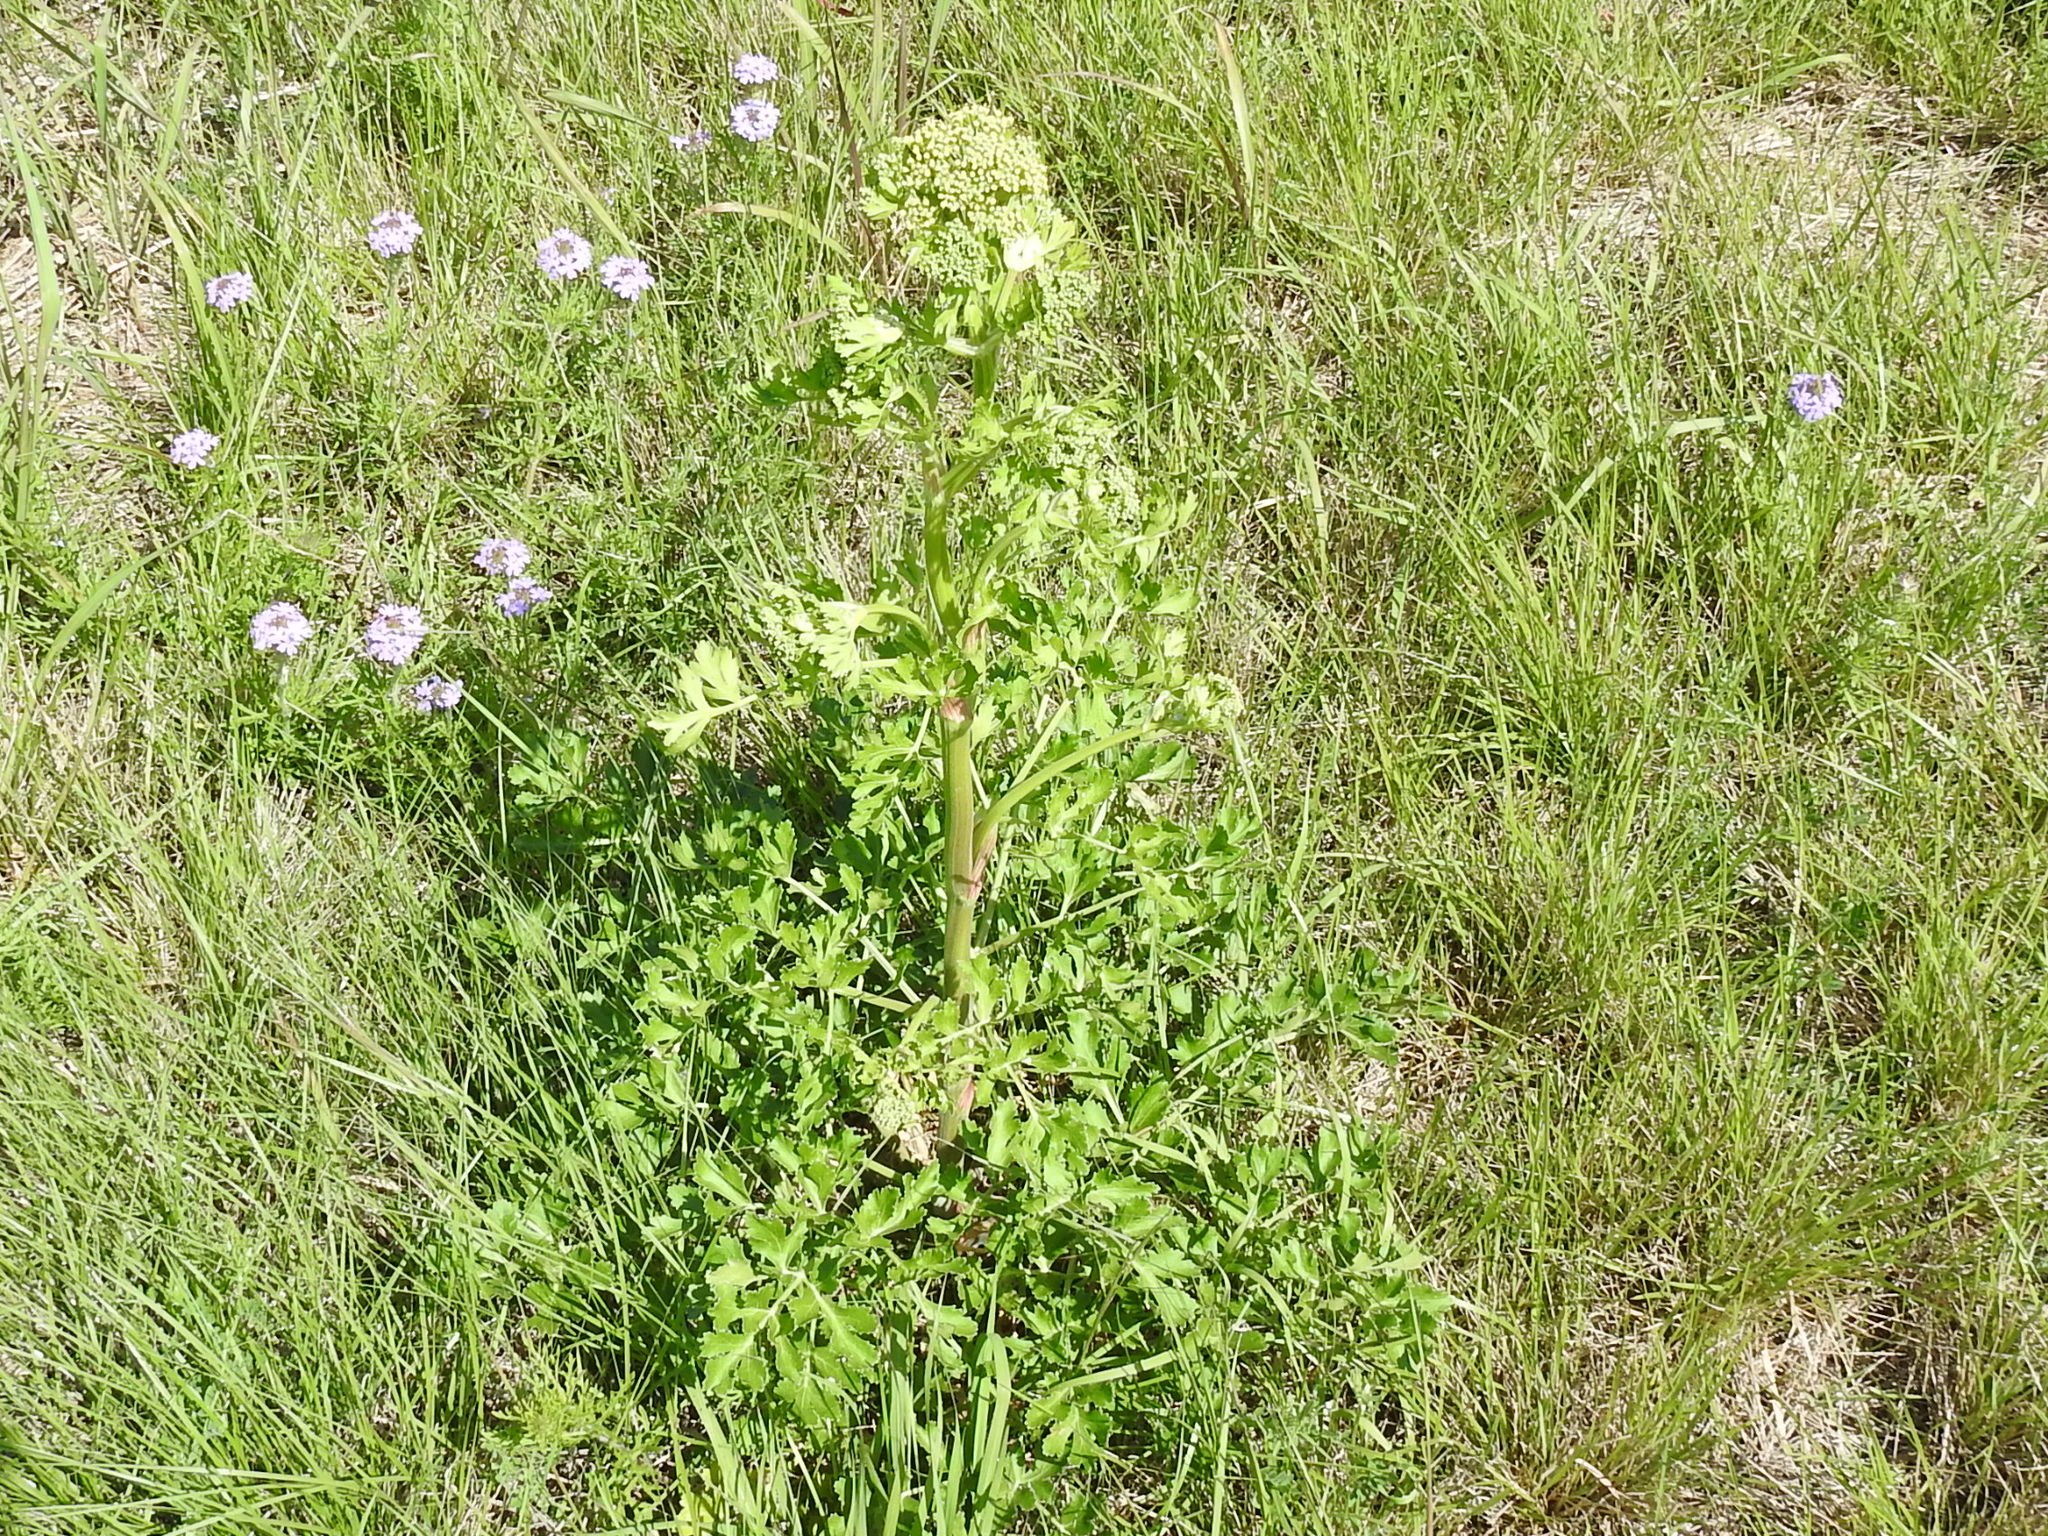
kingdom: Plantae
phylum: Tracheophyta
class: Magnoliopsida
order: Apiales
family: Apiaceae
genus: Polytaenia
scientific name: Polytaenia texana
